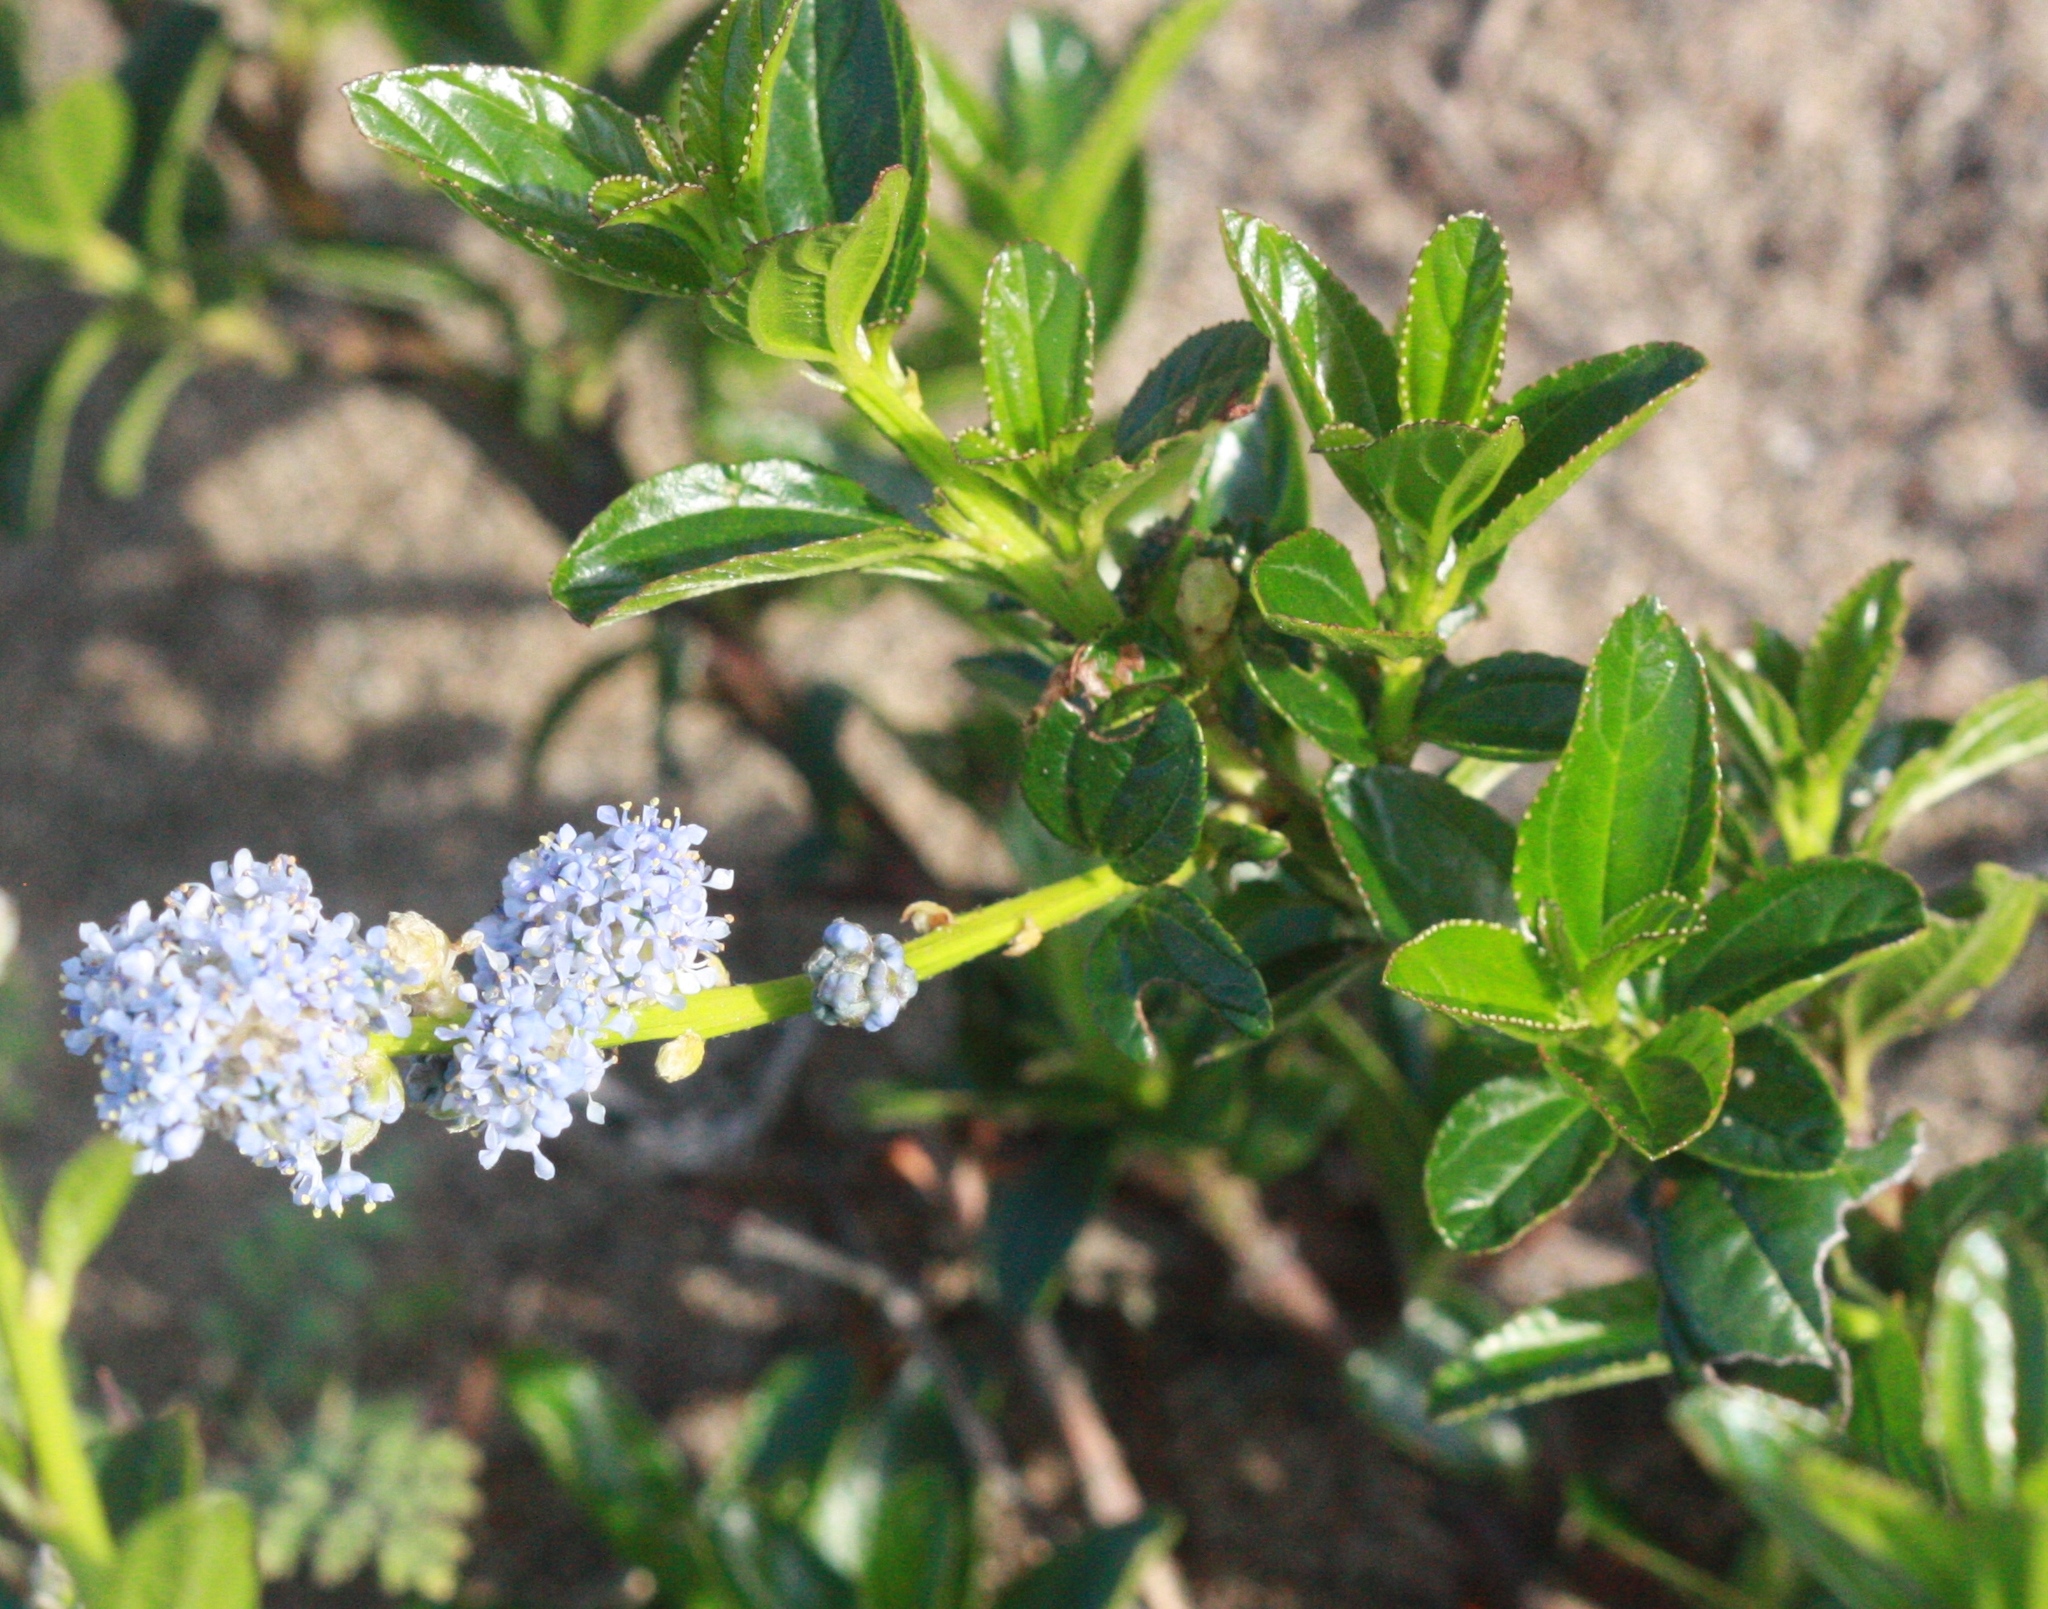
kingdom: Plantae
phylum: Tracheophyta
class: Magnoliopsida
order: Rosales
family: Rhamnaceae
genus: Ceanothus
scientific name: Ceanothus thyrsiflorus
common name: California-lilac
